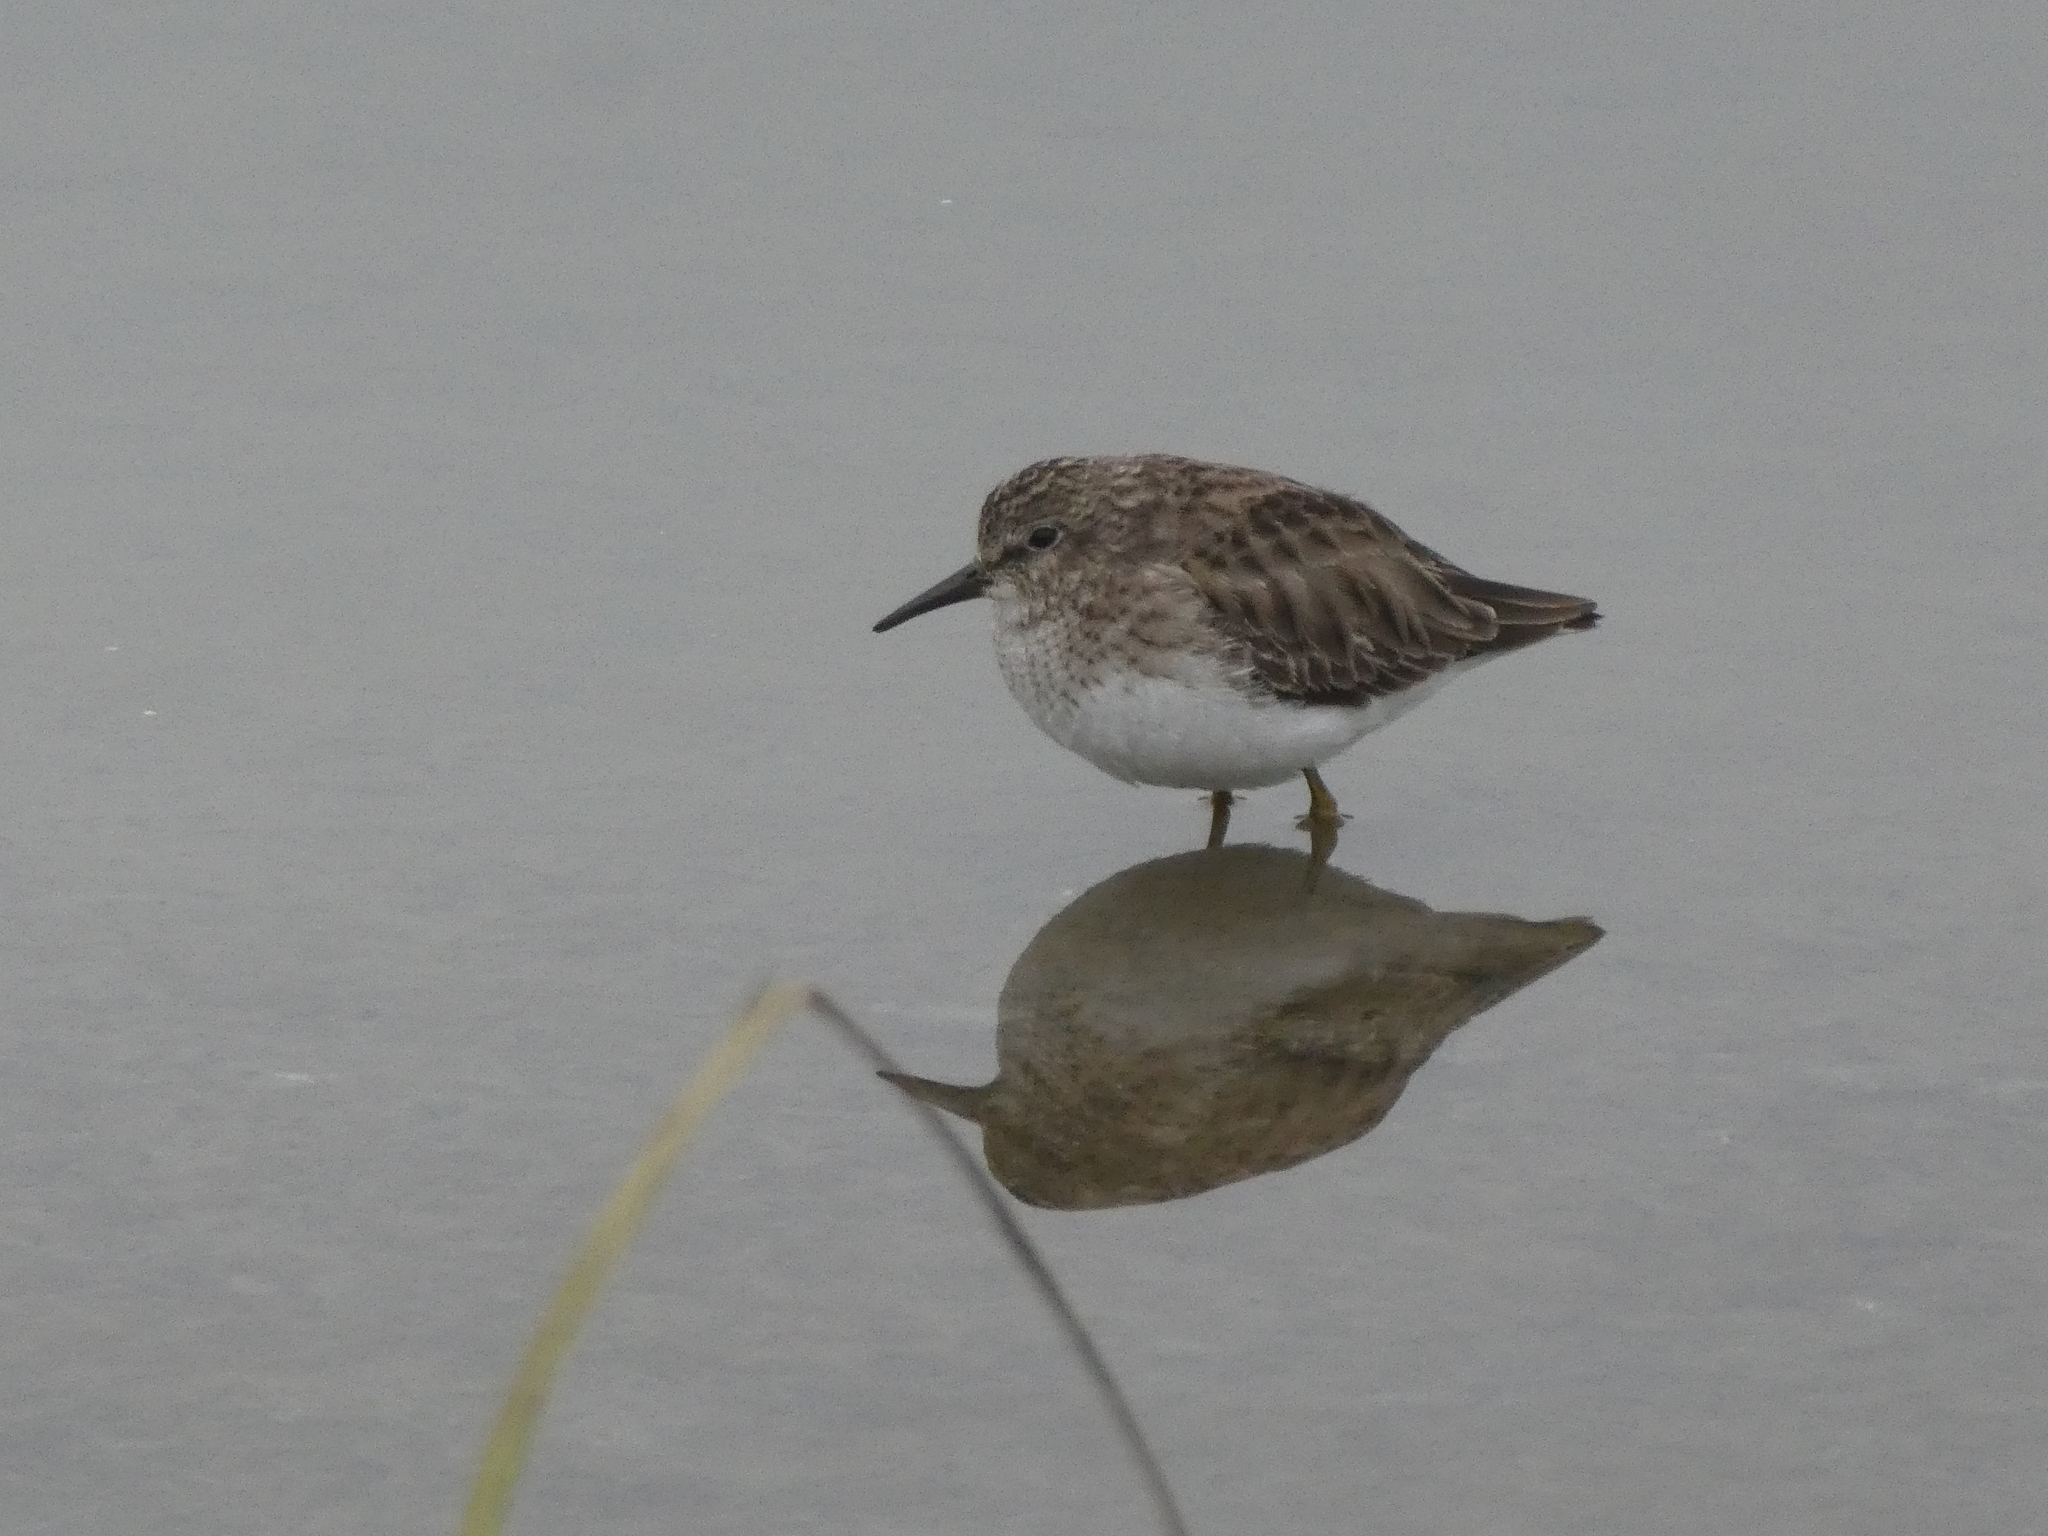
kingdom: Animalia
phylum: Chordata
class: Aves
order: Charadriiformes
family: Scolopacidae
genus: Calidris
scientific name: Calidris minutilla
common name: Least sandpiper
